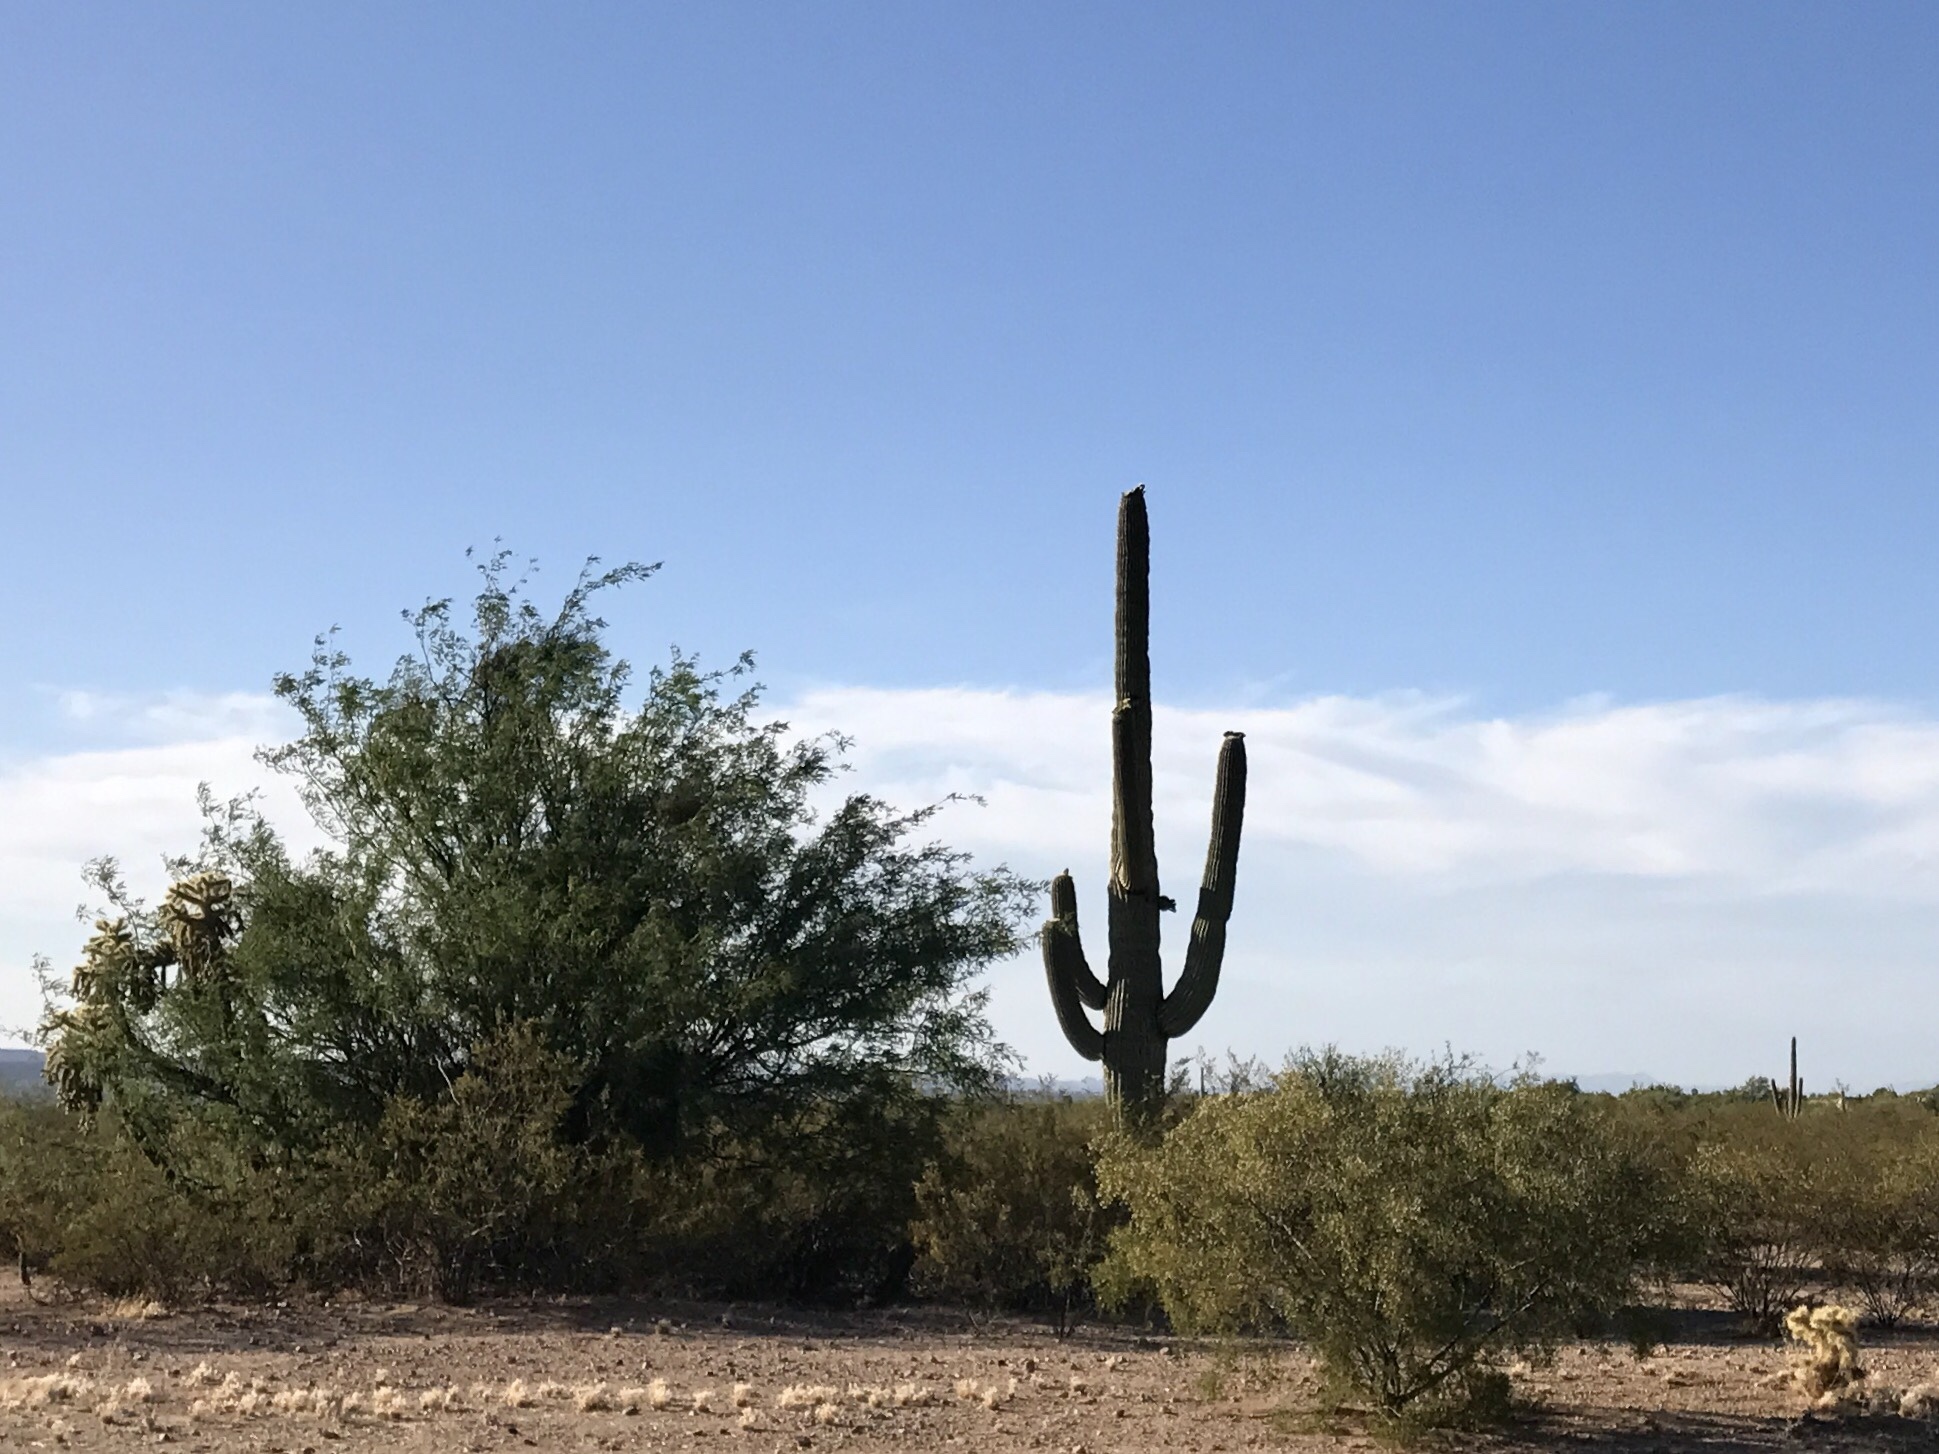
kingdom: Plantae
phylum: Tracheophyta
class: Magnoliopsida
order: Caryophyllales
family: Cactaceae
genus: Carnegiea
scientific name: Carnegiea gigantea
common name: Saguaro
